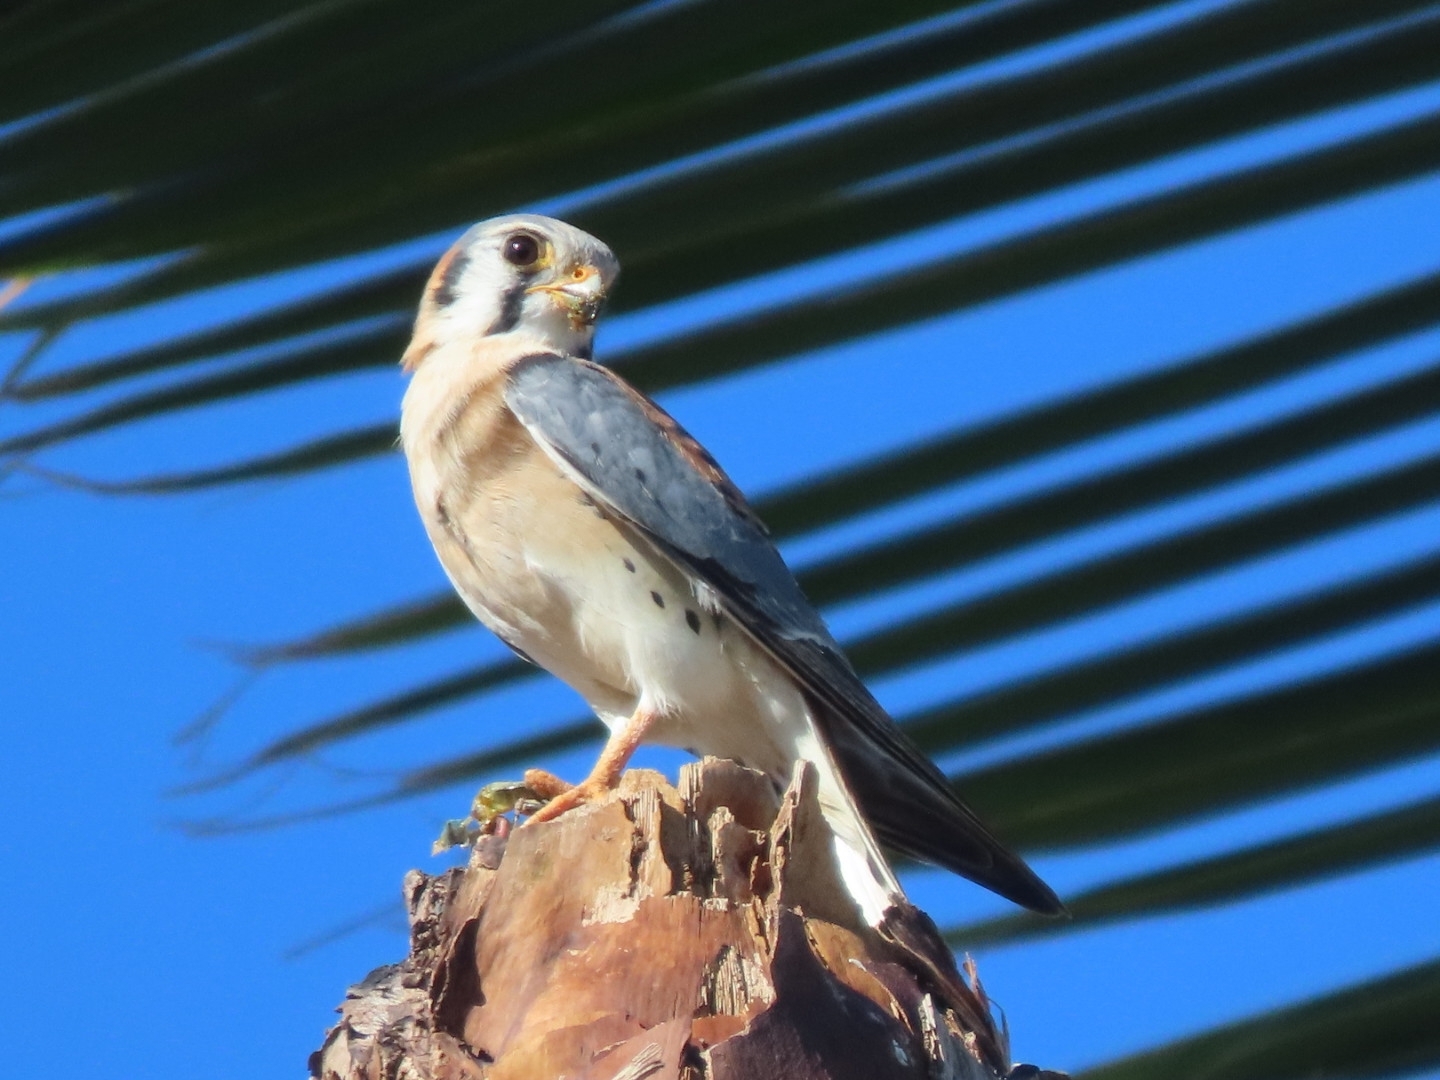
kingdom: Animalia
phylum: Chordata
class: Aves
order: Falconiformes
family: Falconidae
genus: Falco
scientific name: Falco sparverius
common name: American kestrel
